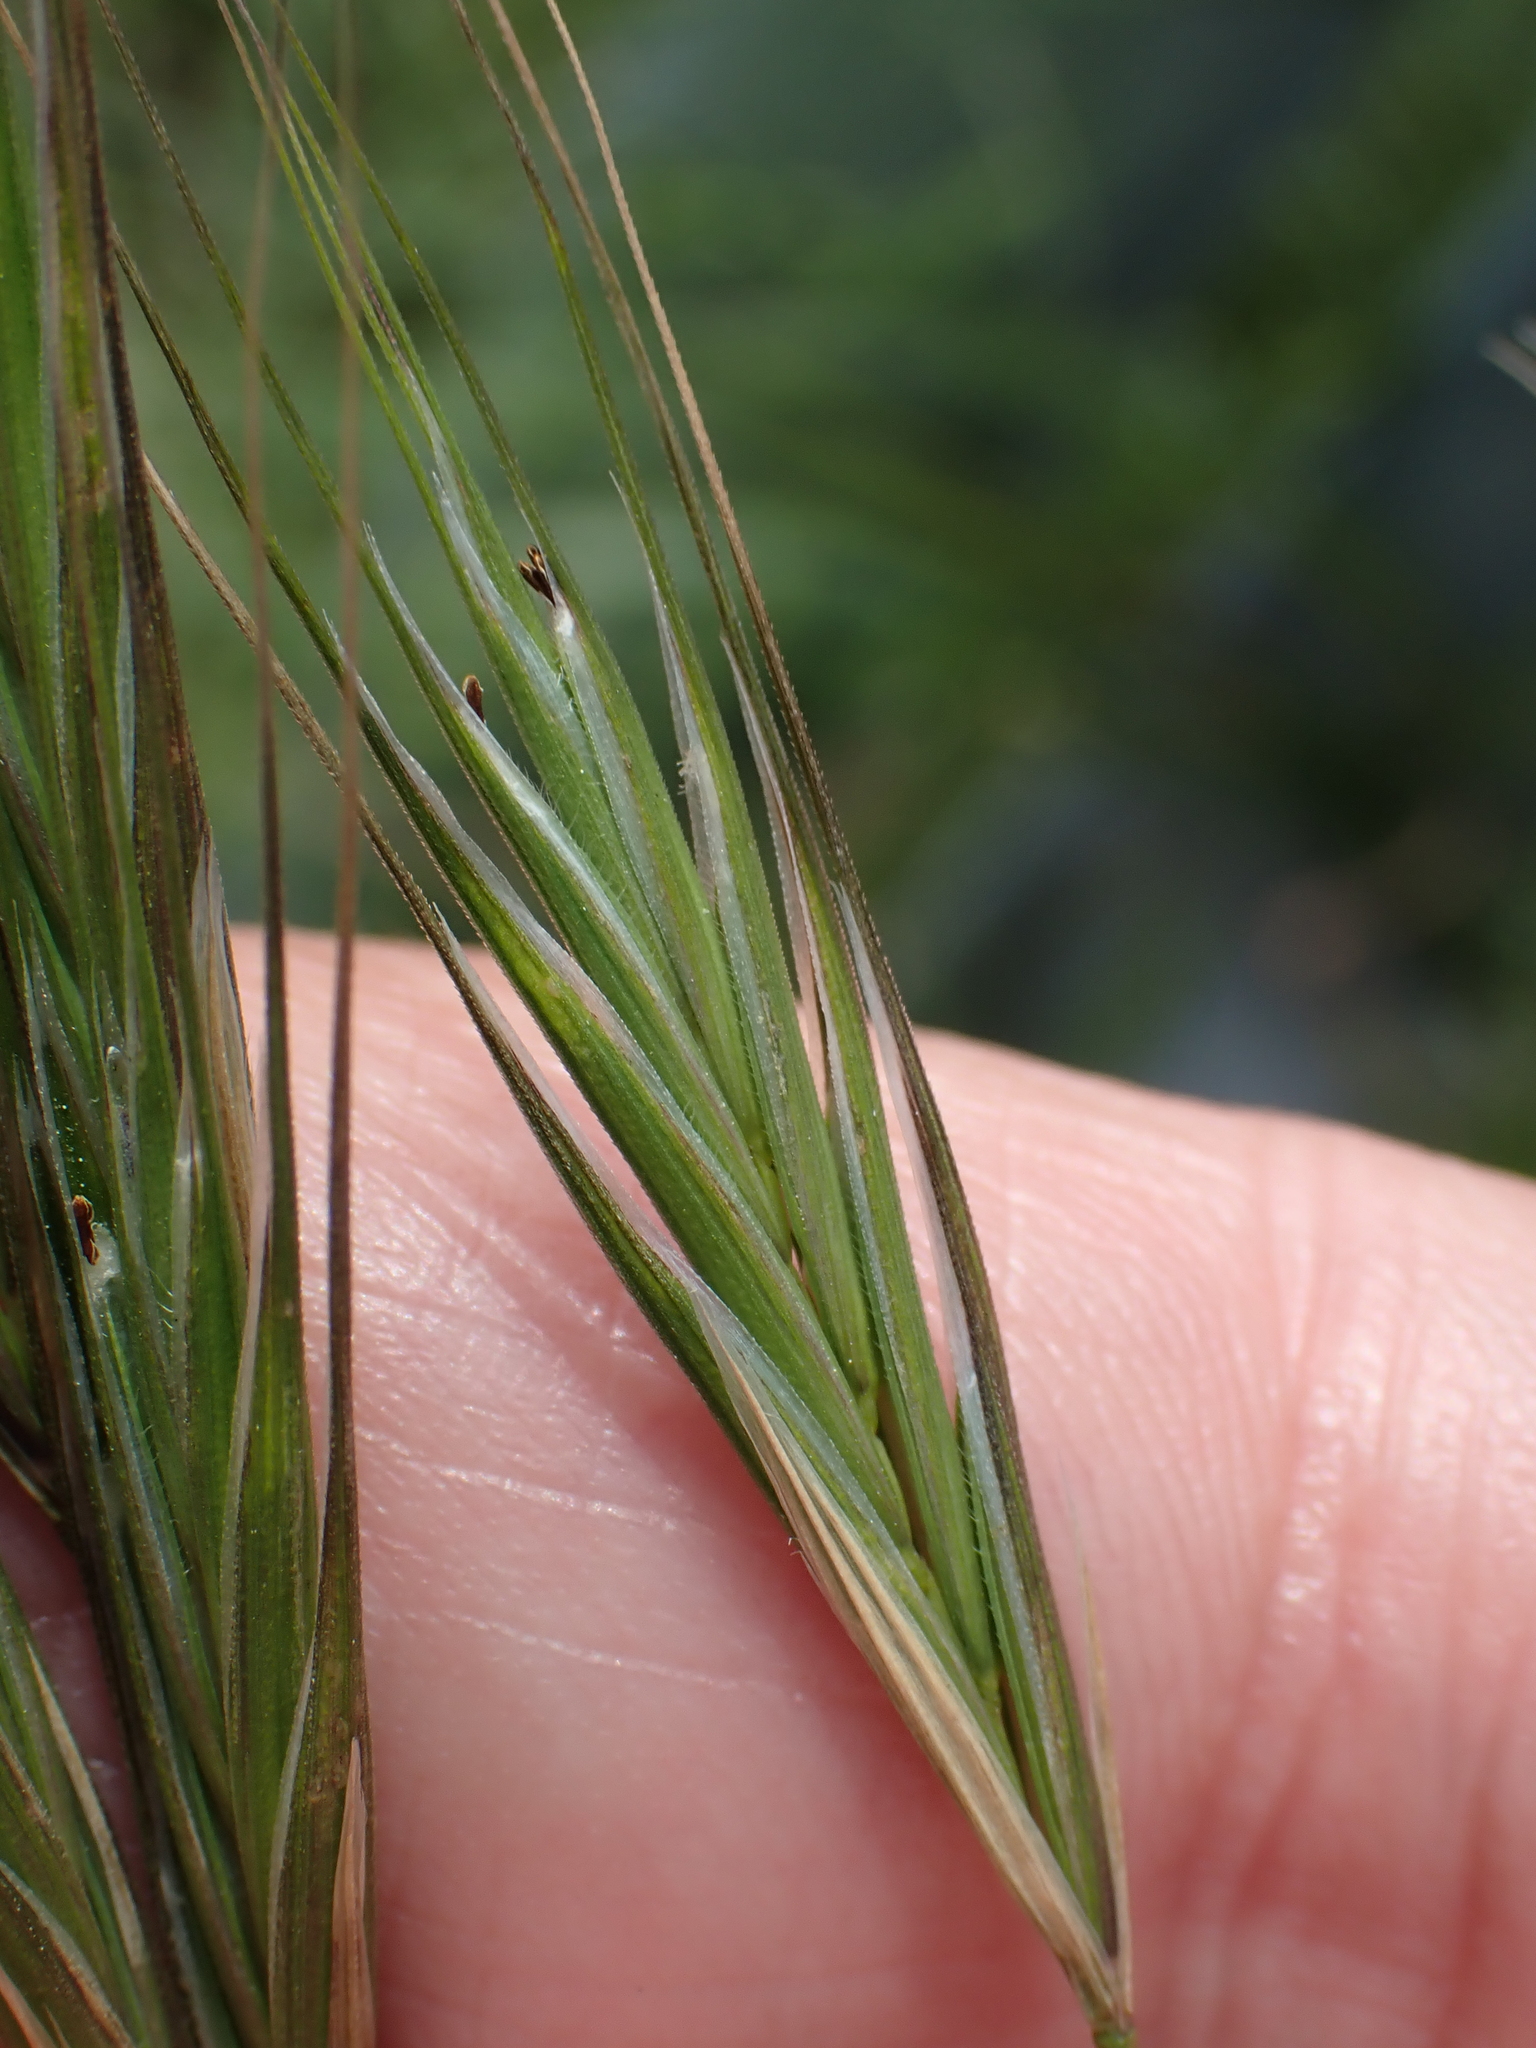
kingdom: Plantae
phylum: Tracheophyta
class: Liliopsida
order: Poales
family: Poaceae
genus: Bromus
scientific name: Bromus sterilis
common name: Poverty brome
